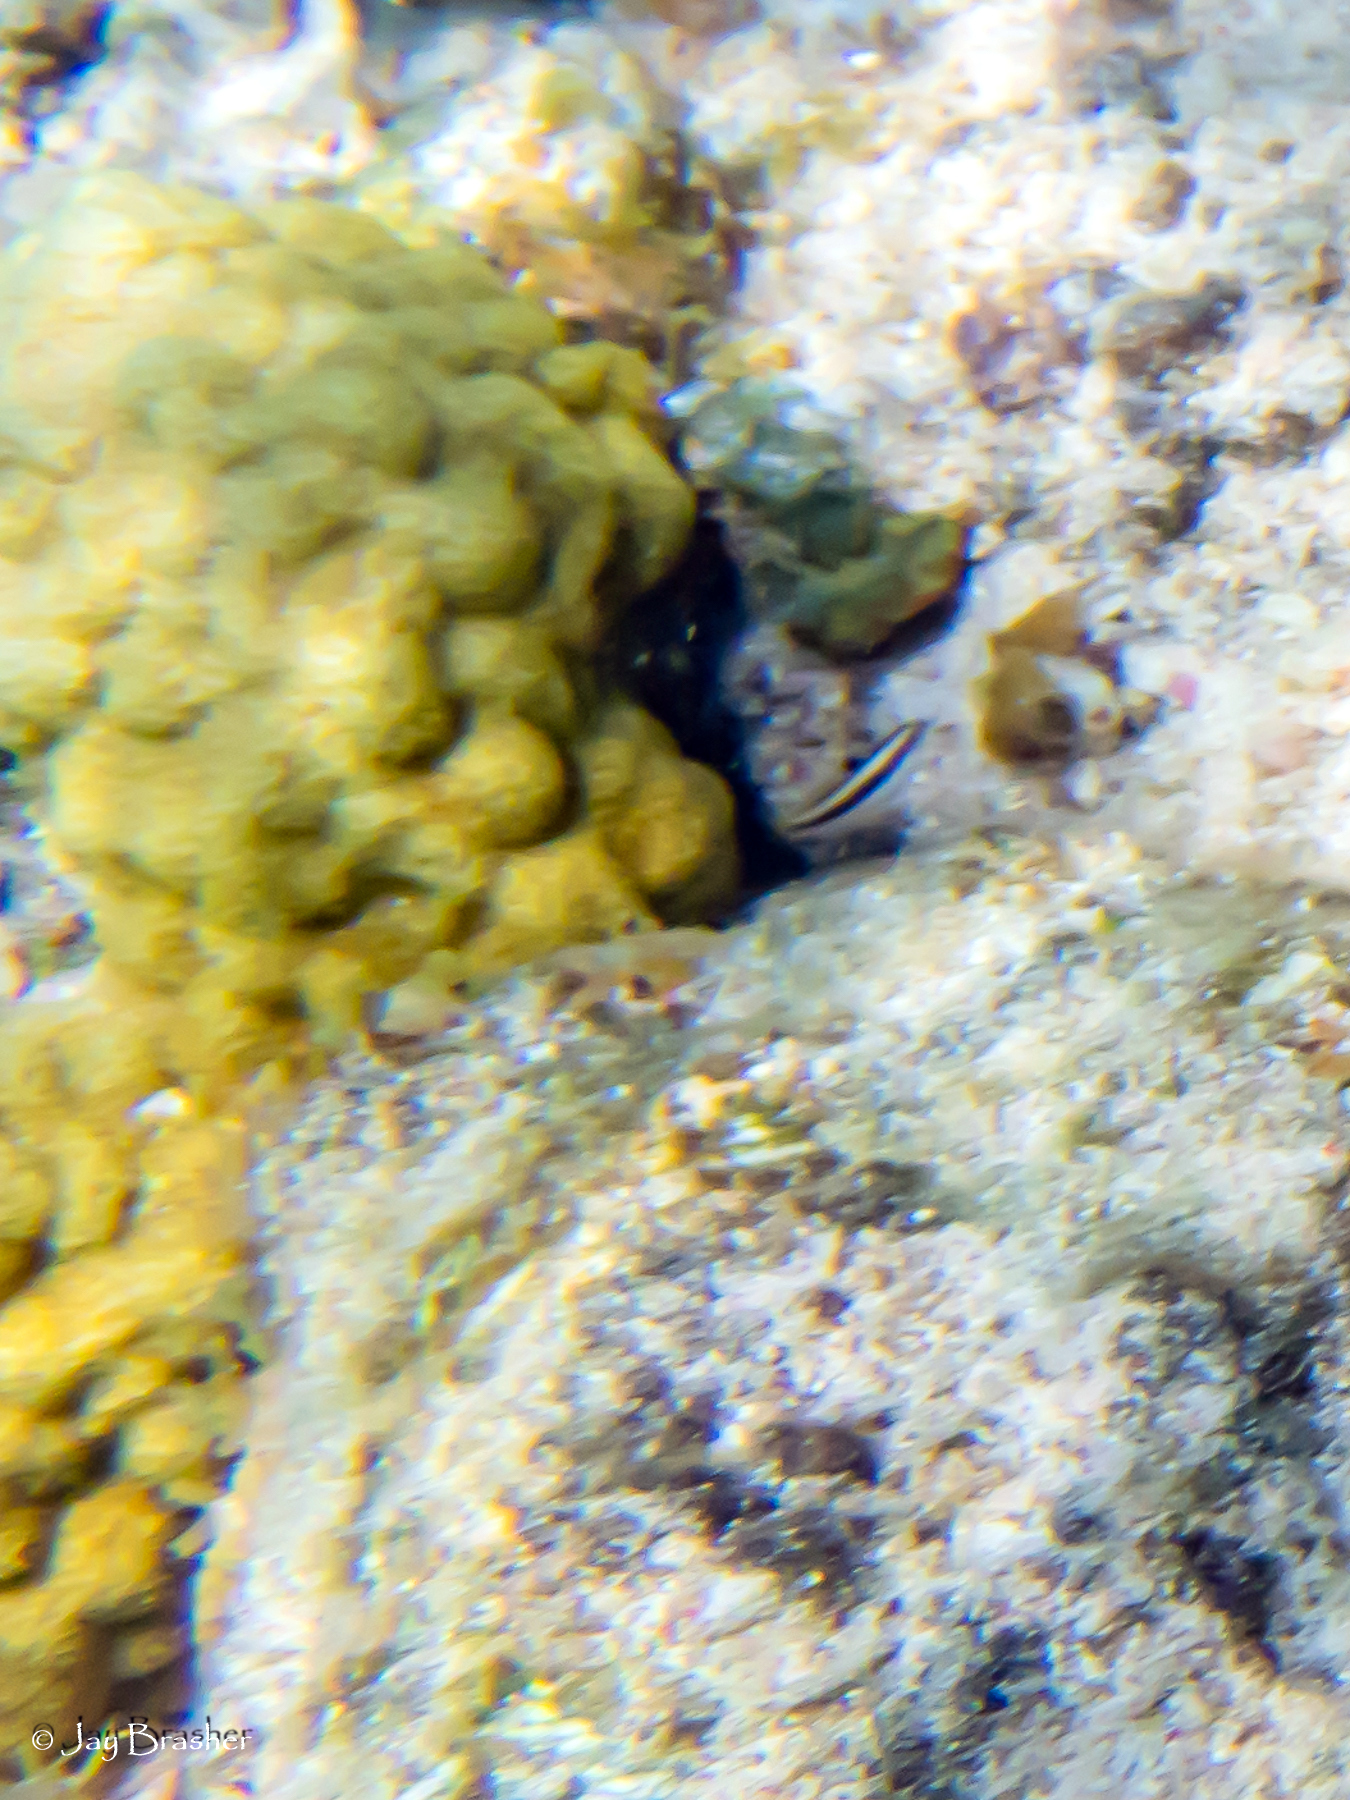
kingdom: Animalia
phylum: Cnidaria
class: Anthozoa
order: Scleractinia
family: Poritidae
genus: Porites
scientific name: Porites astreoides
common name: Mustard hill coral
